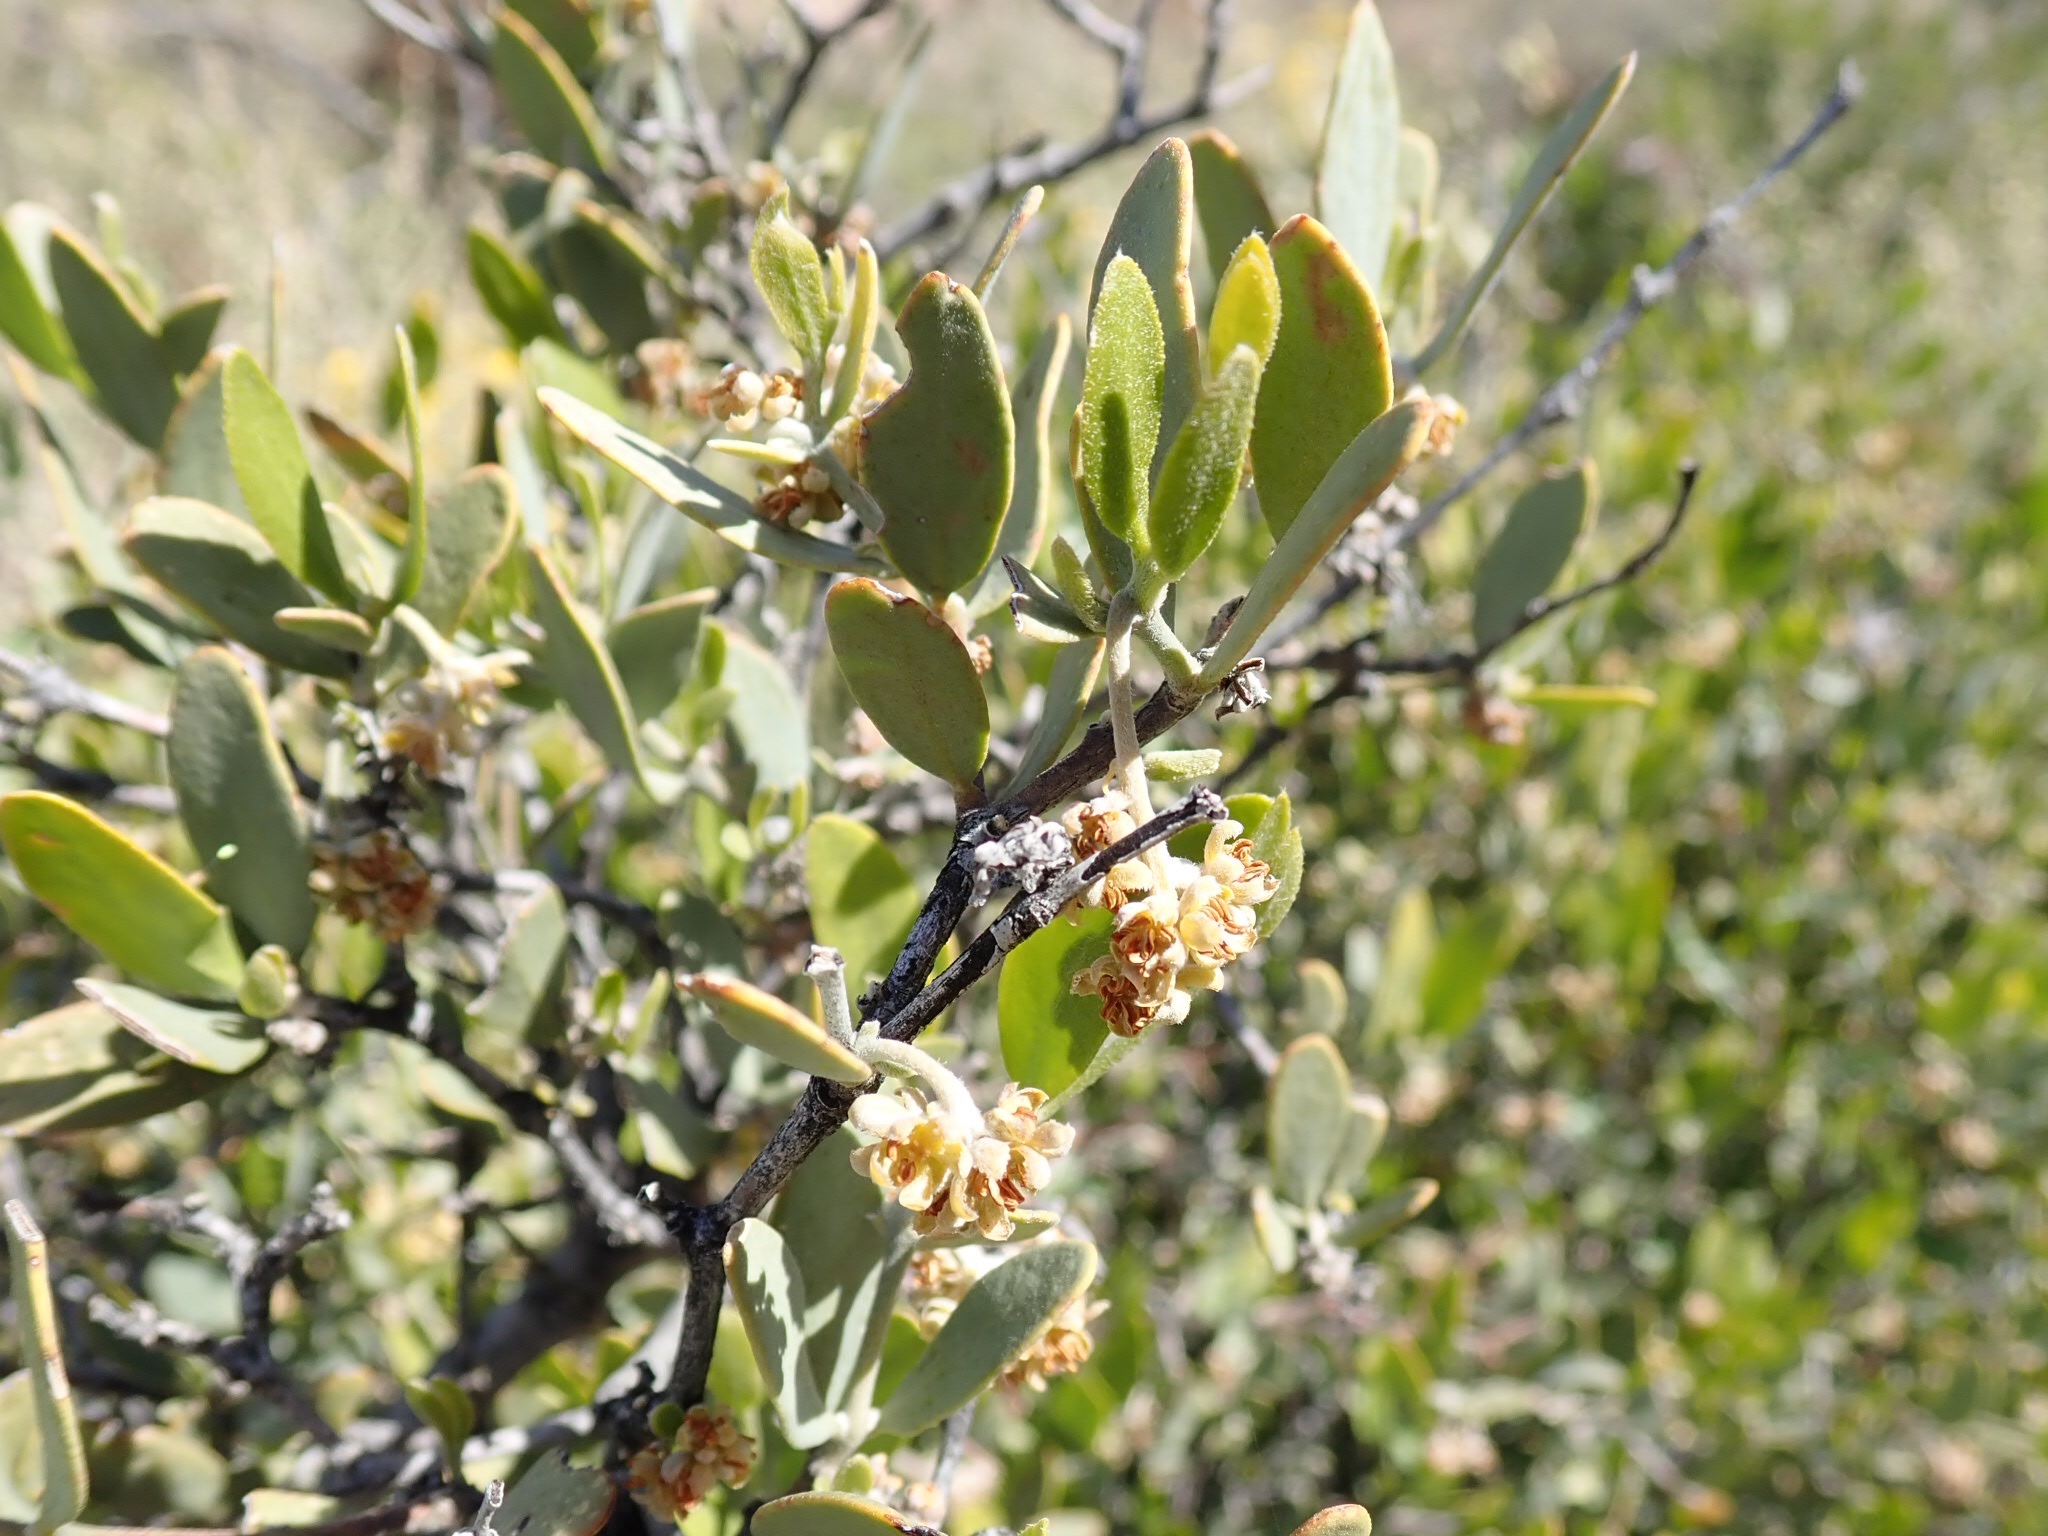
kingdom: Plantae
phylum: Tracheophyta
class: Magnoliopsida
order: Caryophyllales
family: Simmondsiaceae
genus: Simmondsia
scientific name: Simmondsia chinensis
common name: Jojoba
